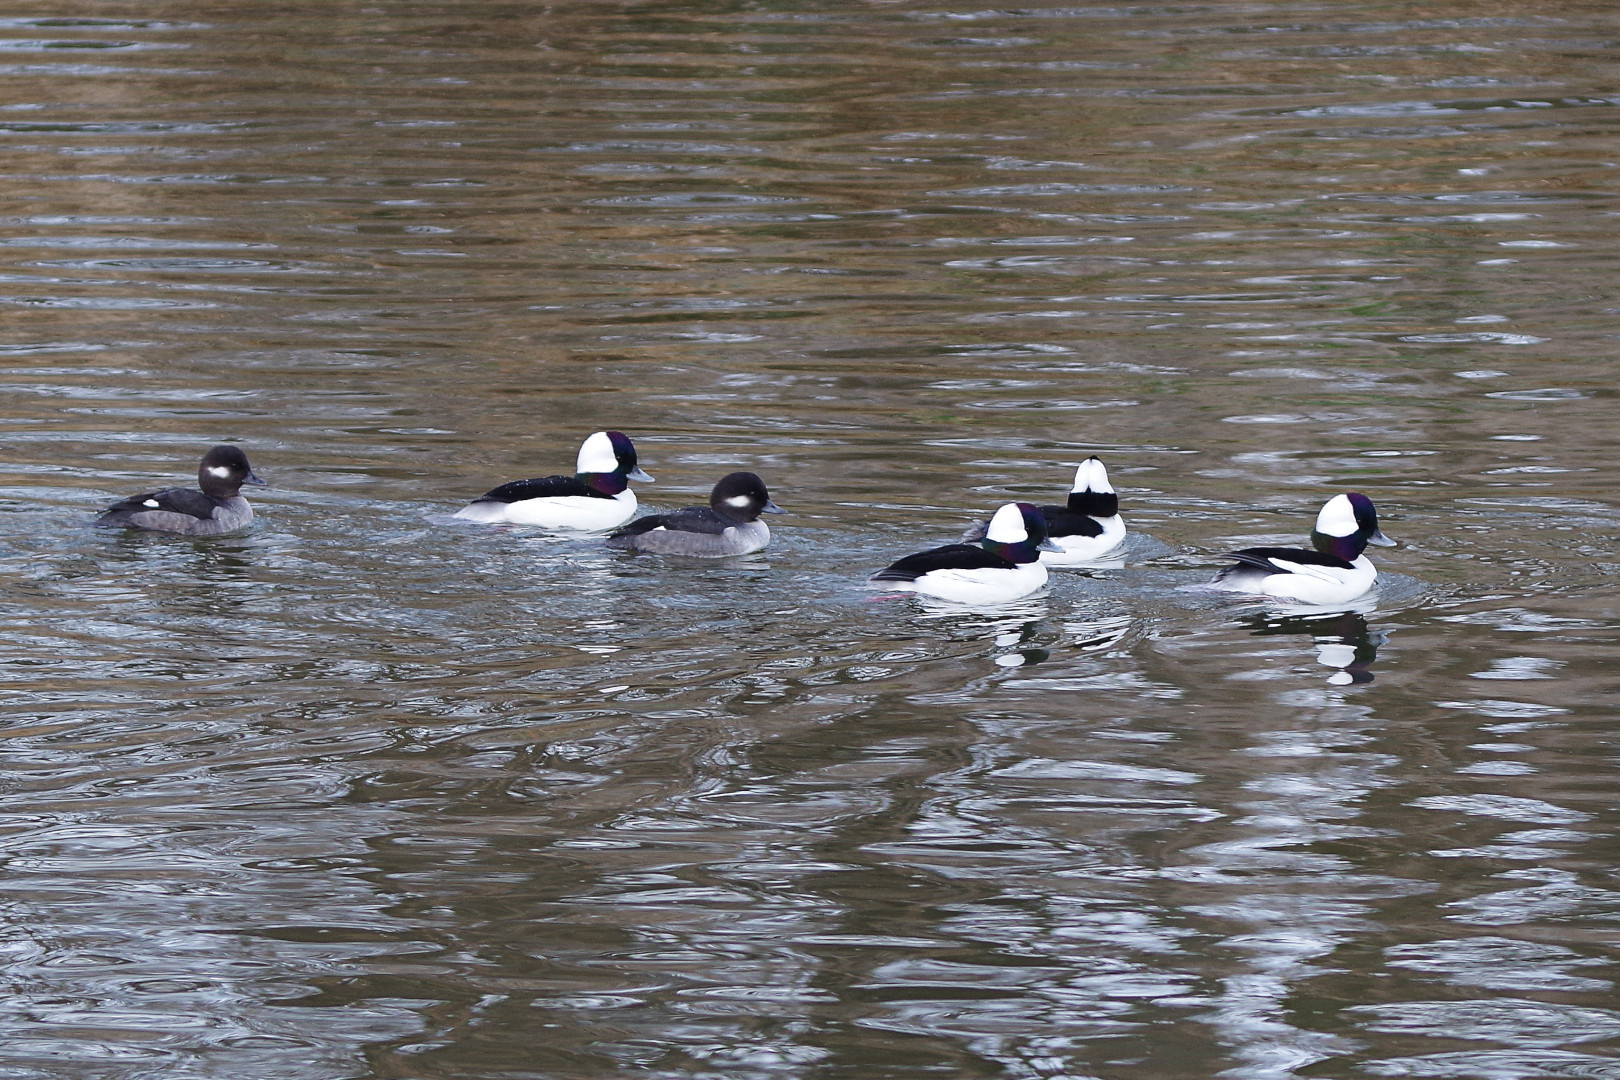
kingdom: Animalia
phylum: Chordata
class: Aves
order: Anseriformes
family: Anatidae
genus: Bucephala
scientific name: Bucephala albeola
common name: Bufflehead
